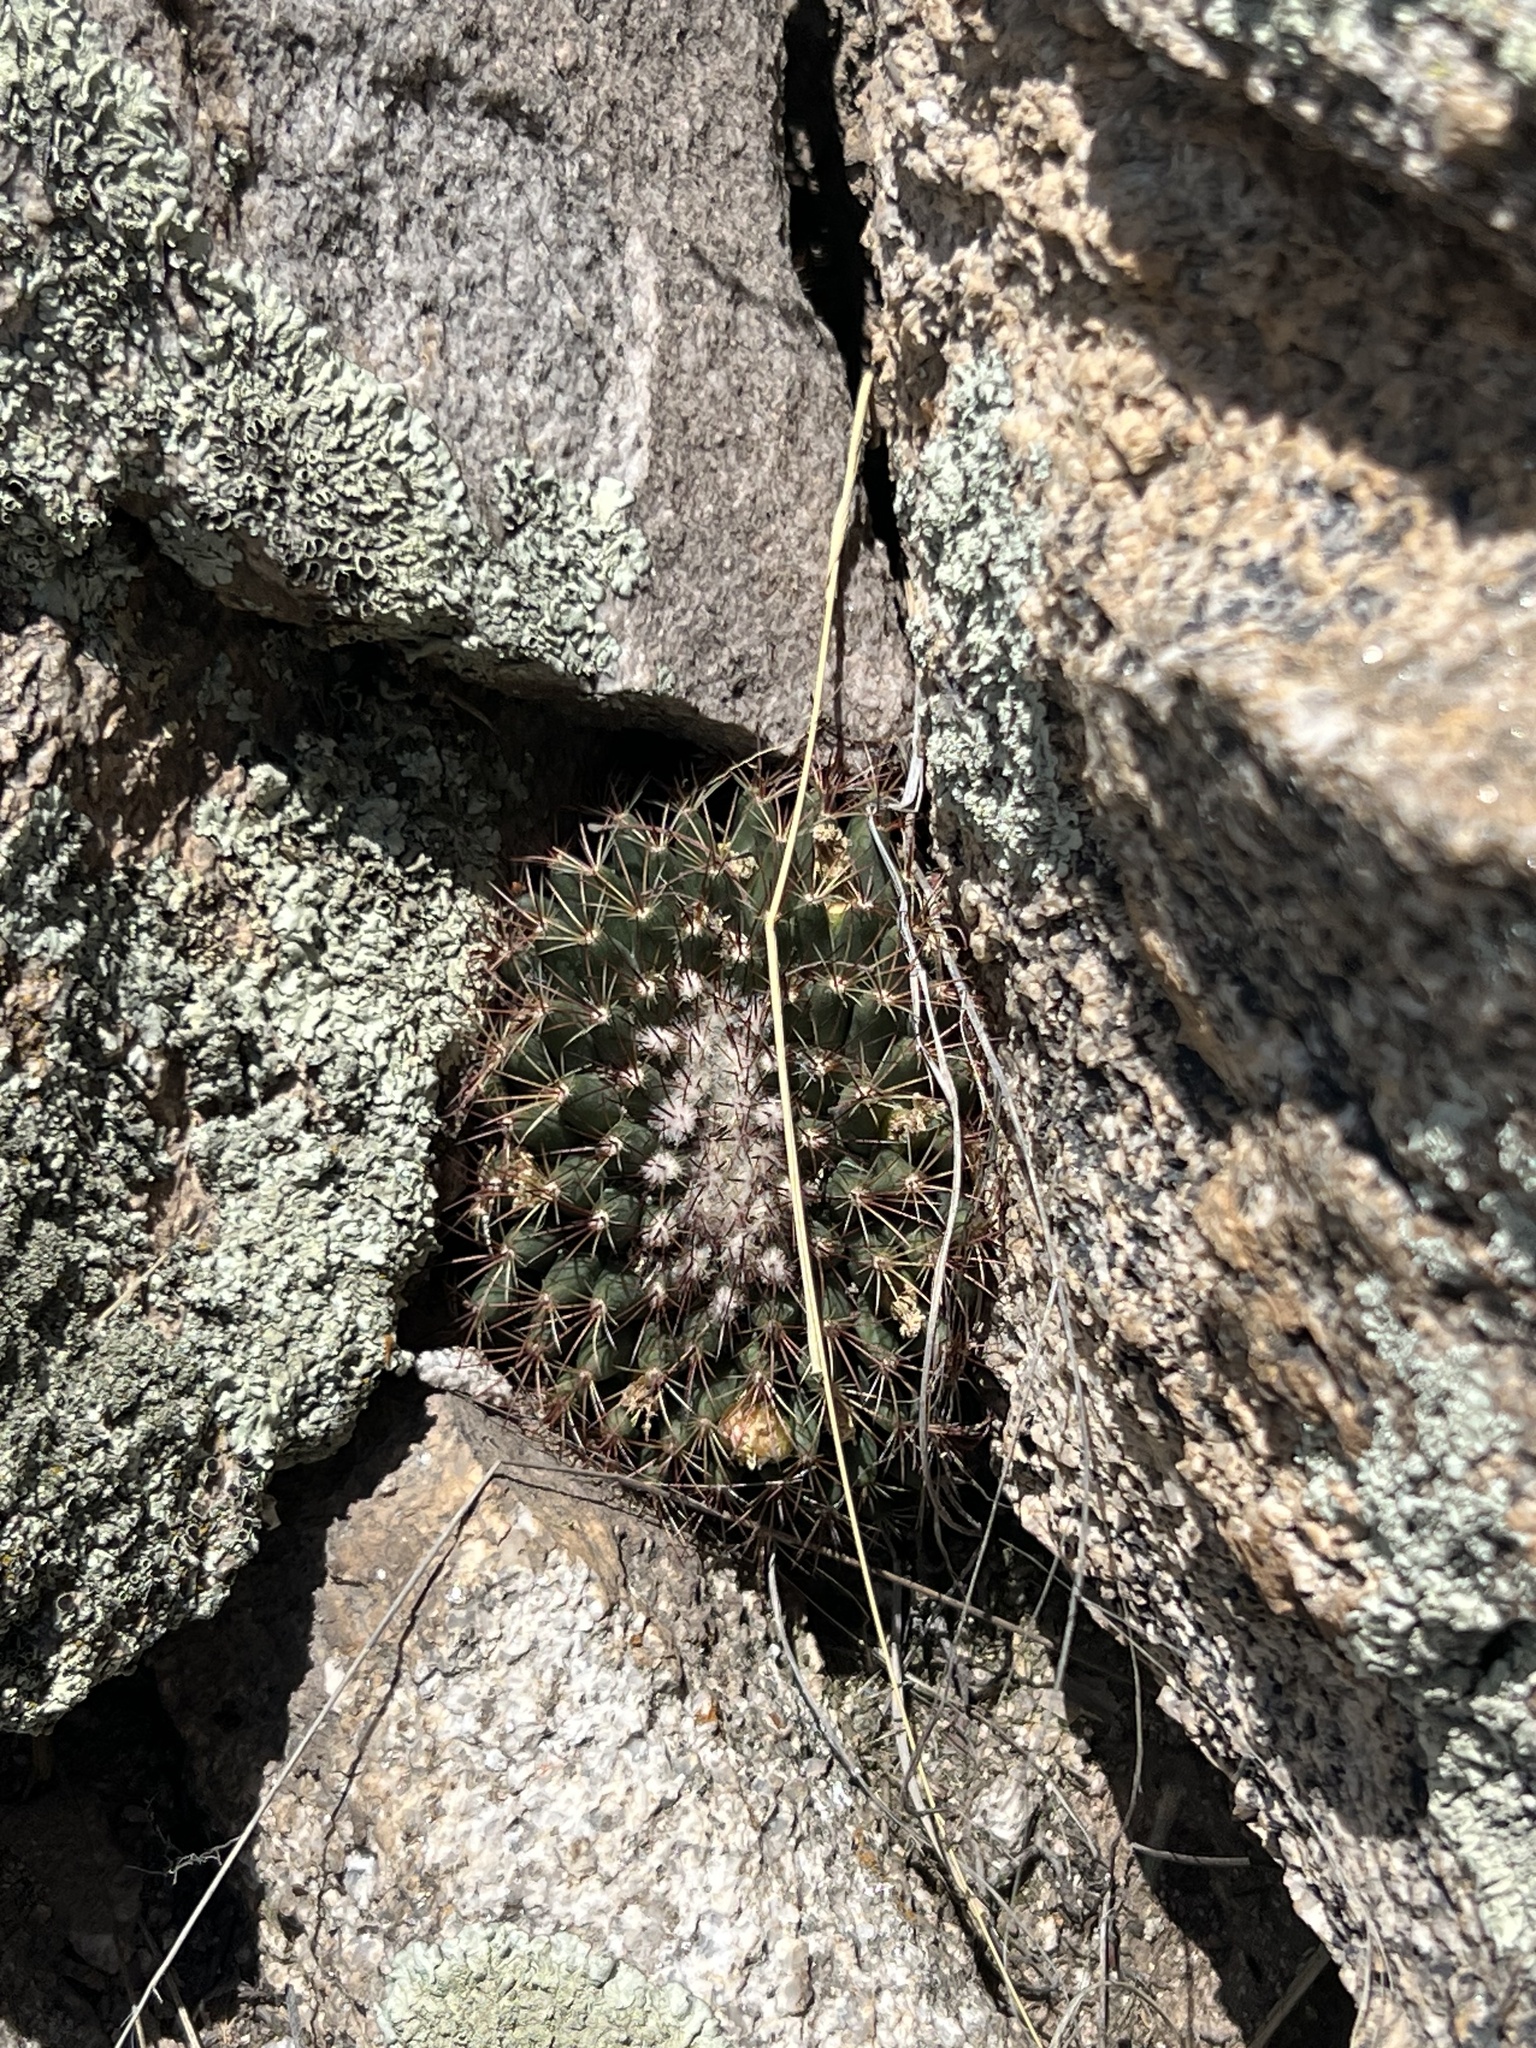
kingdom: Plantae
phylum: Tracheophyta
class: Magnoliopsida
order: Caryophyllales
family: Cactaceae
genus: Mammillaria
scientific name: Mammillaria heyderi
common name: Little nipple cactus
